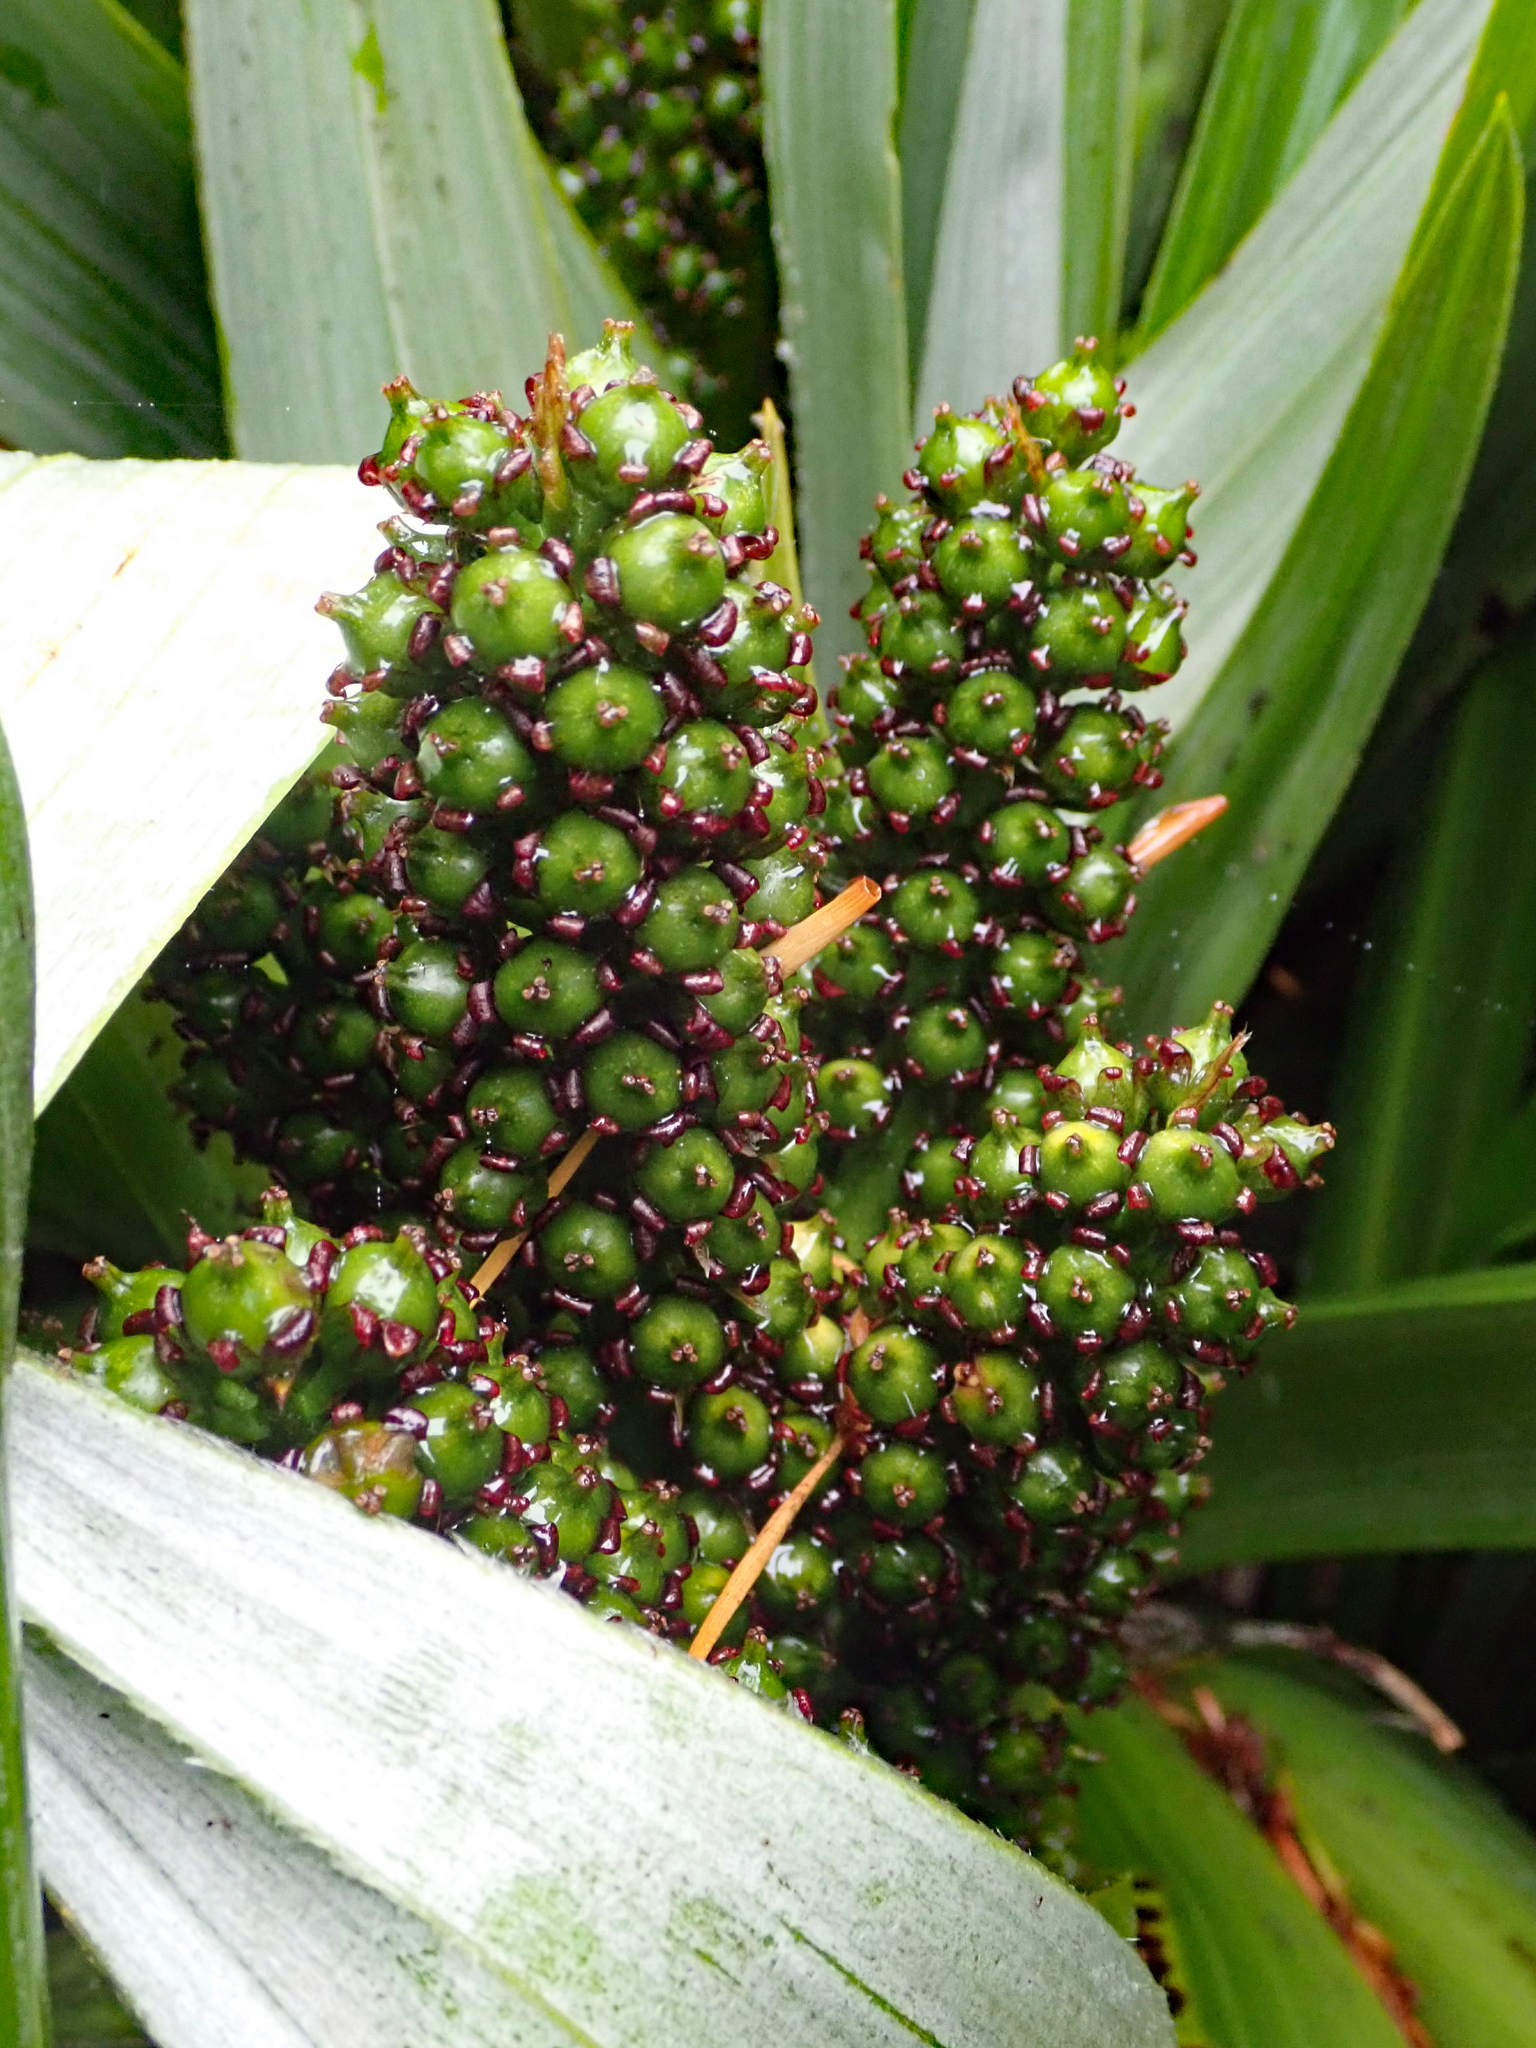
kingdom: Plantae
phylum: Tracheophyta
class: Liliopsida
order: Asparagales
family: Asteliaceae
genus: Astelia
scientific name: Astelia chathamica
